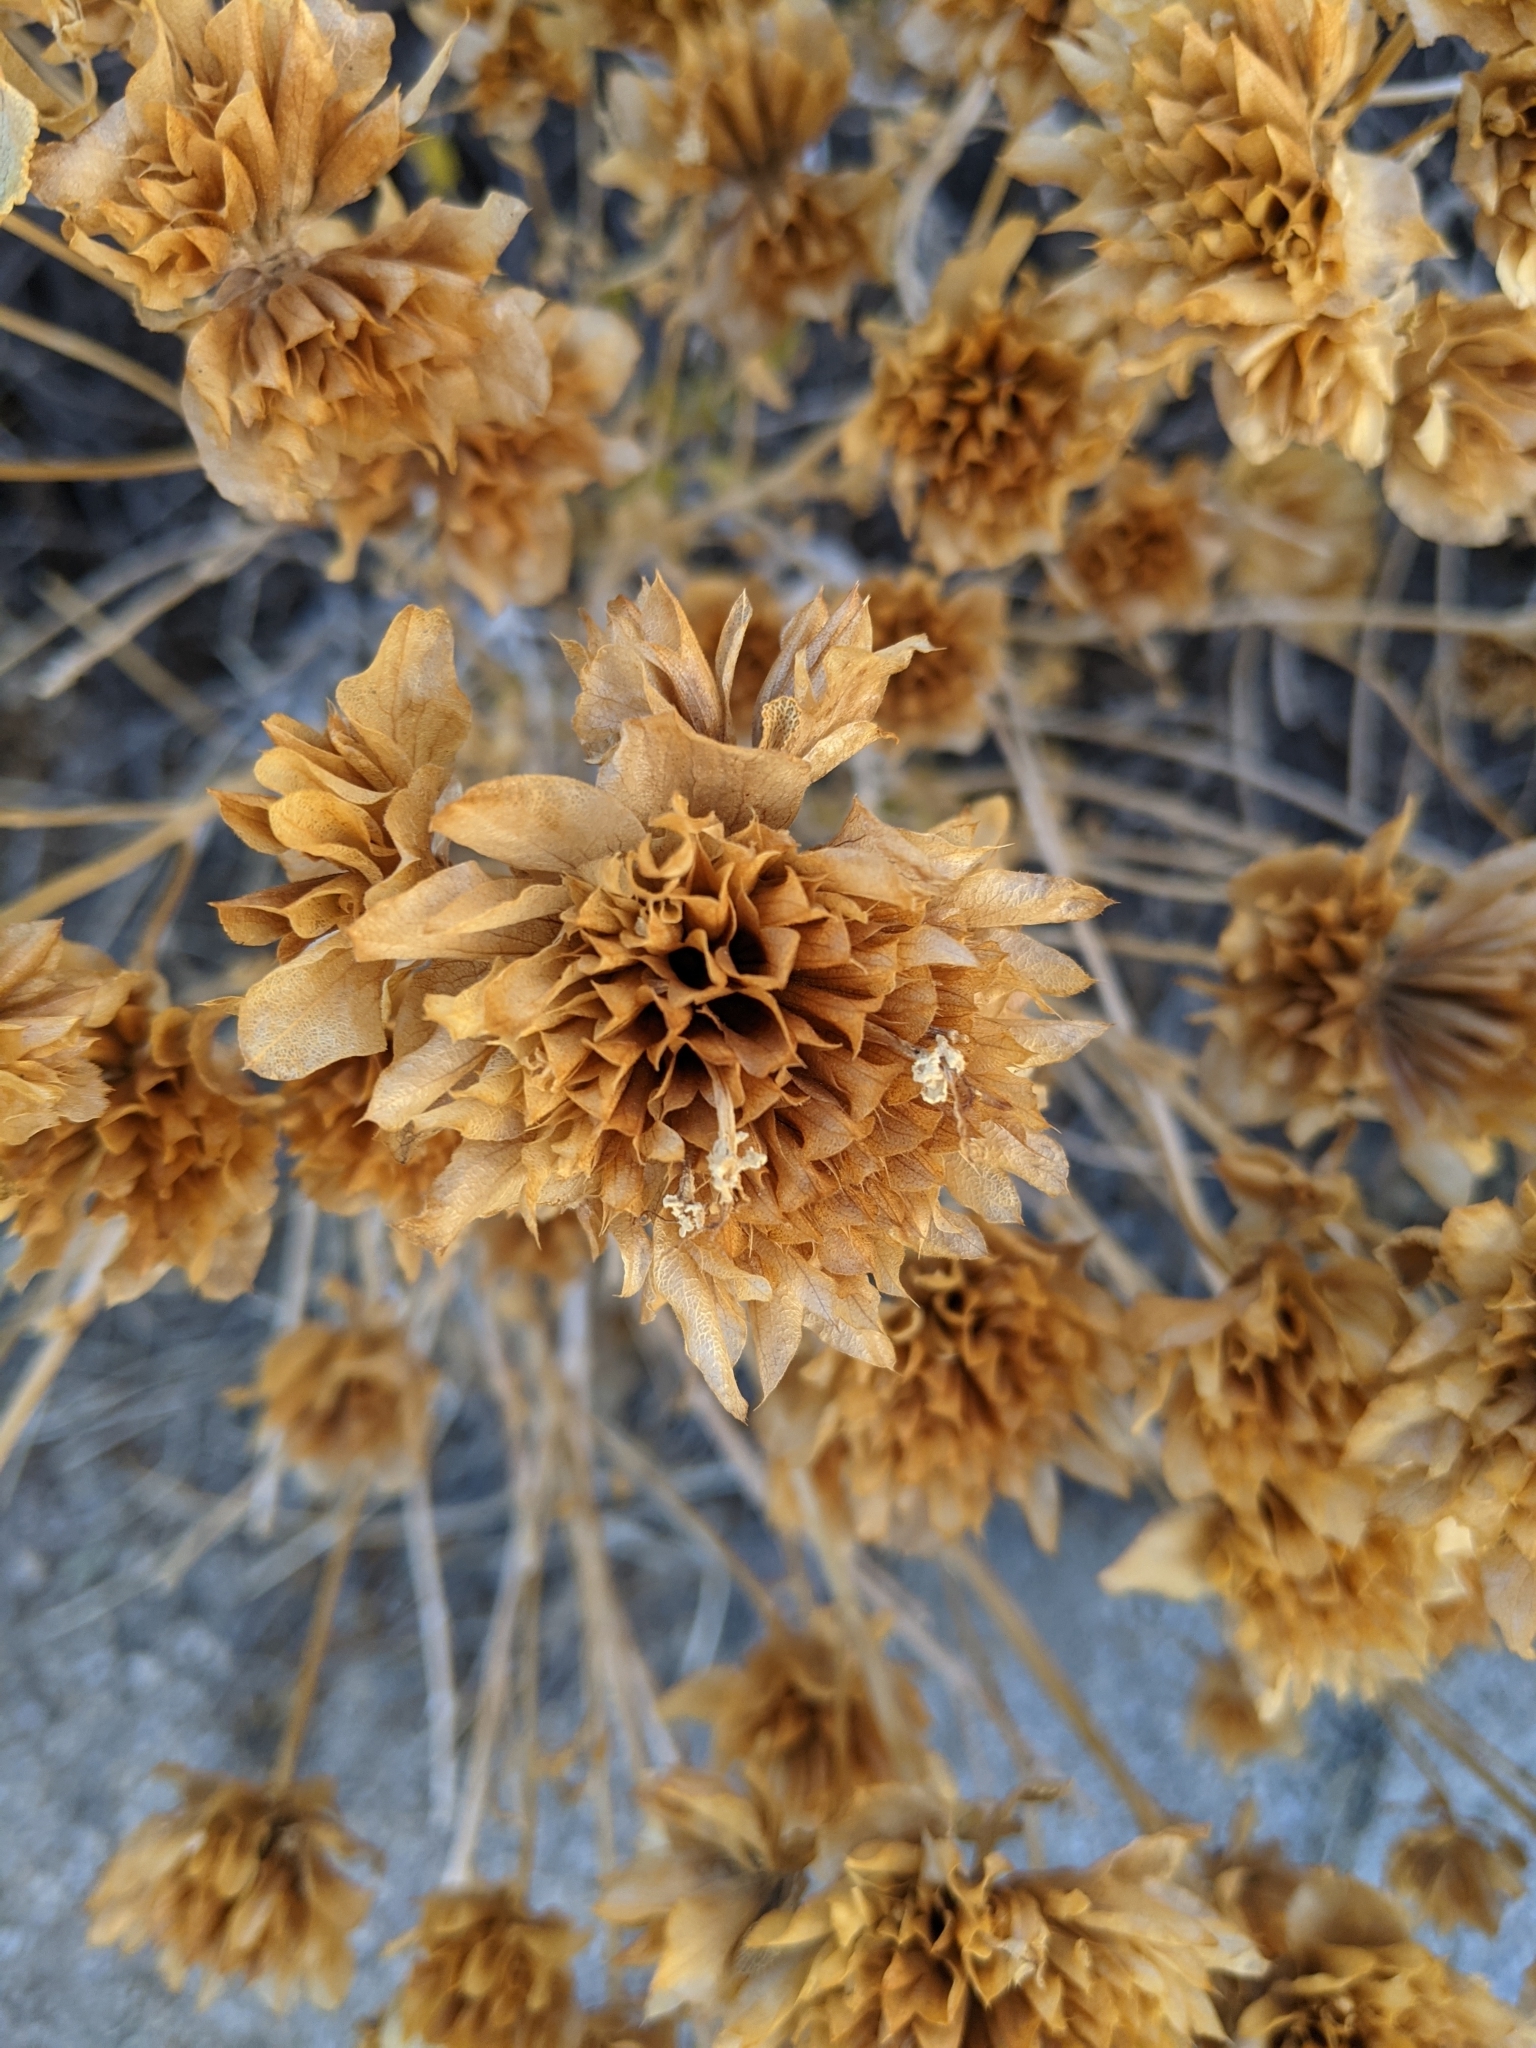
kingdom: Plantae
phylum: Tracheophyta
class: Magnoliopsida
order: Lamiales
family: Lamiaceae
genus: Salvia
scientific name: Salvia mohavensis
